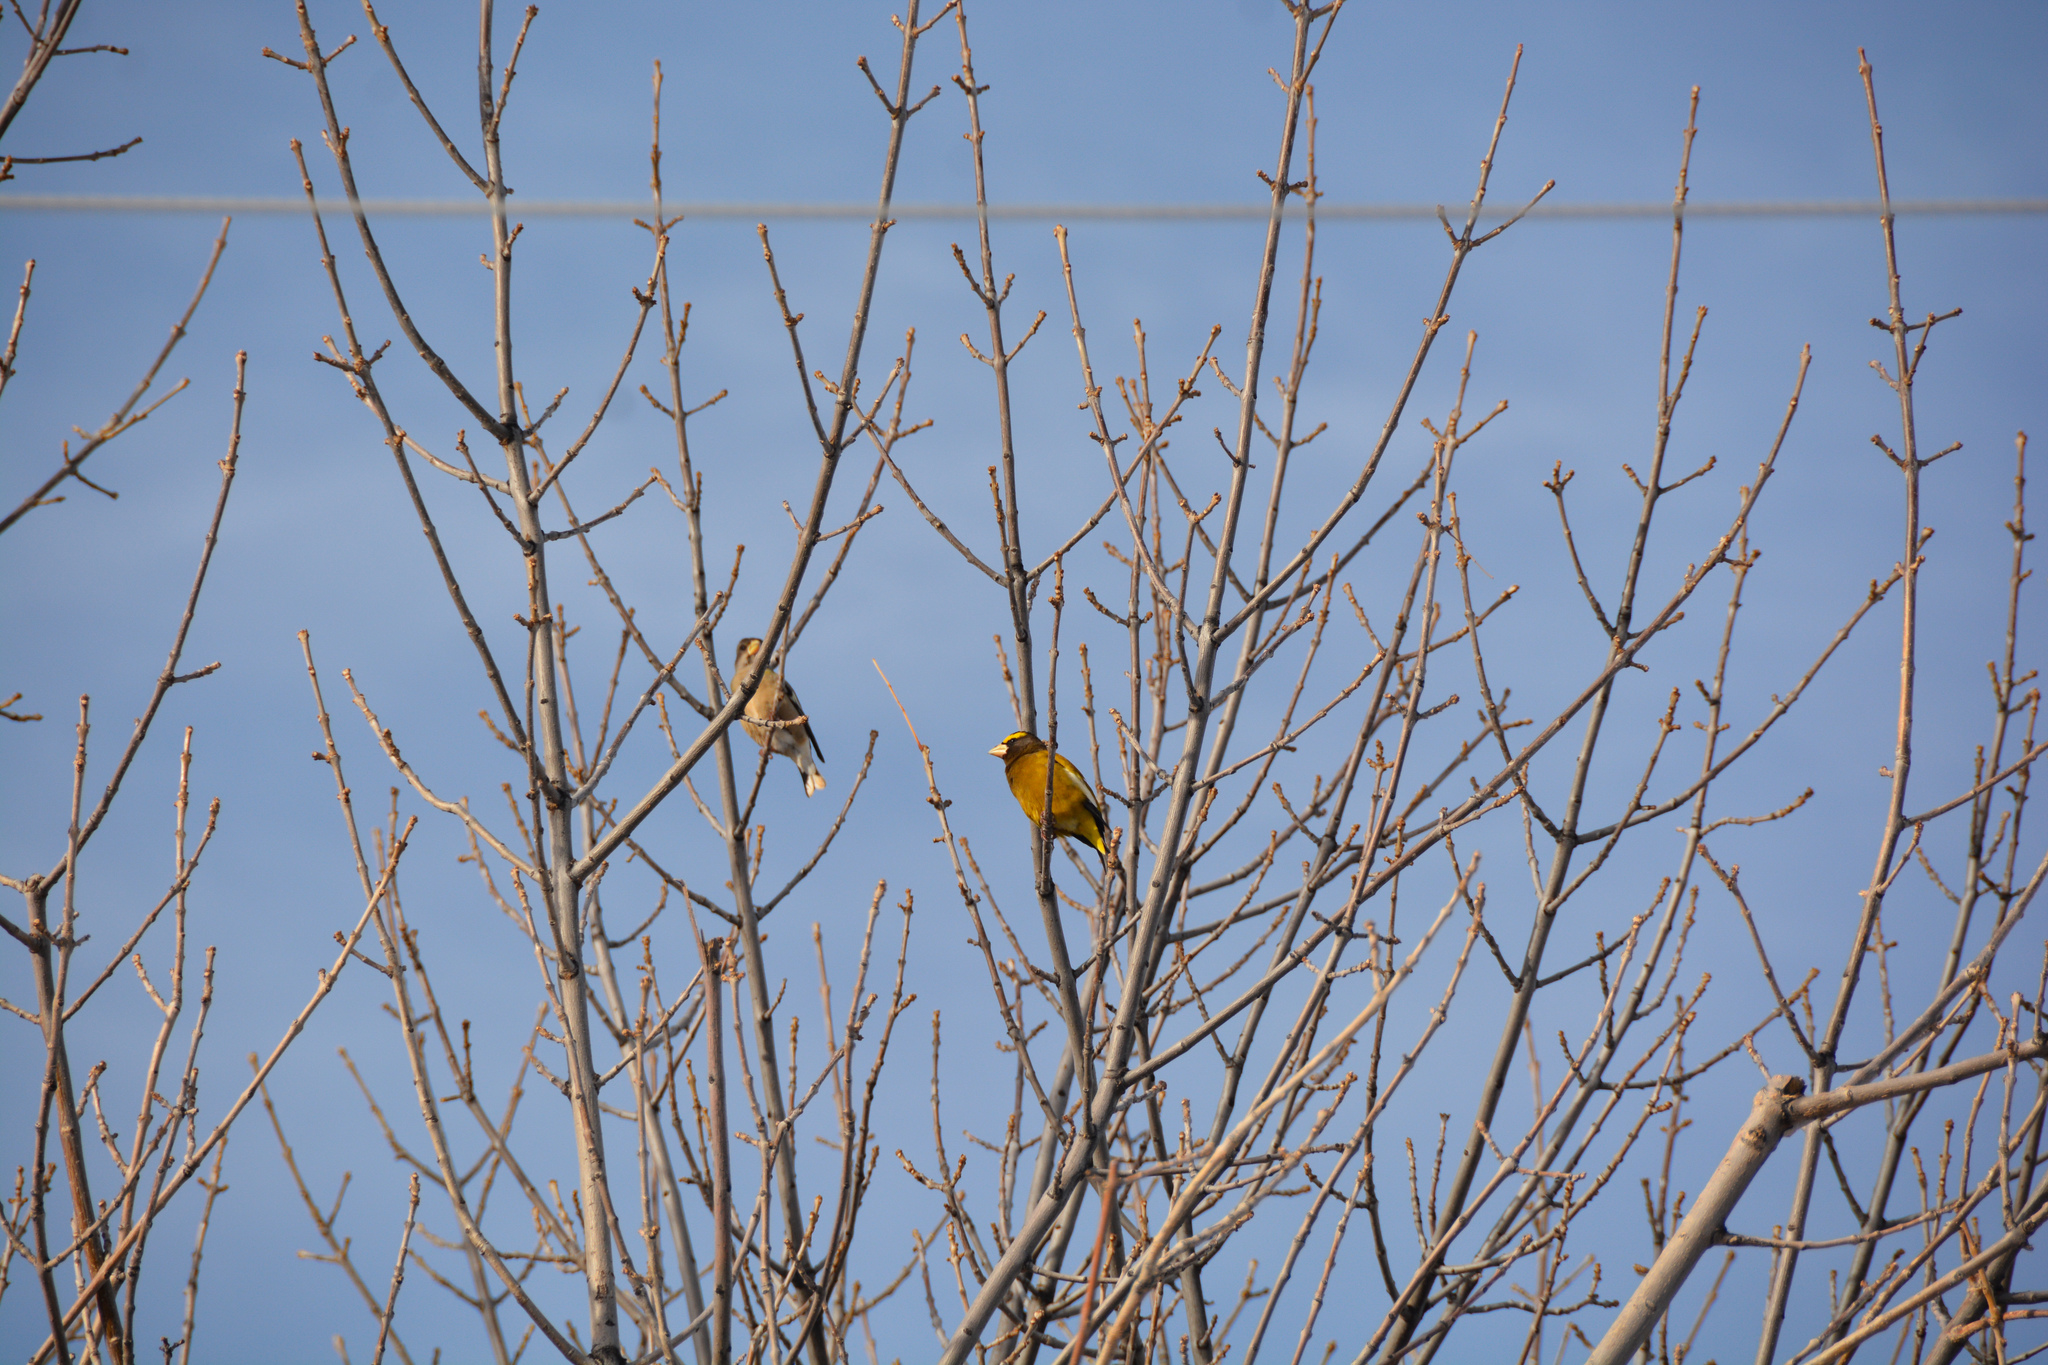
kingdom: Animalia
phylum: Chordata
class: Aves
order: Passeriformes
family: Fringillidae
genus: Hesperiphona
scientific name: Hesperiphona vespertina
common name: Evening grosbeak
